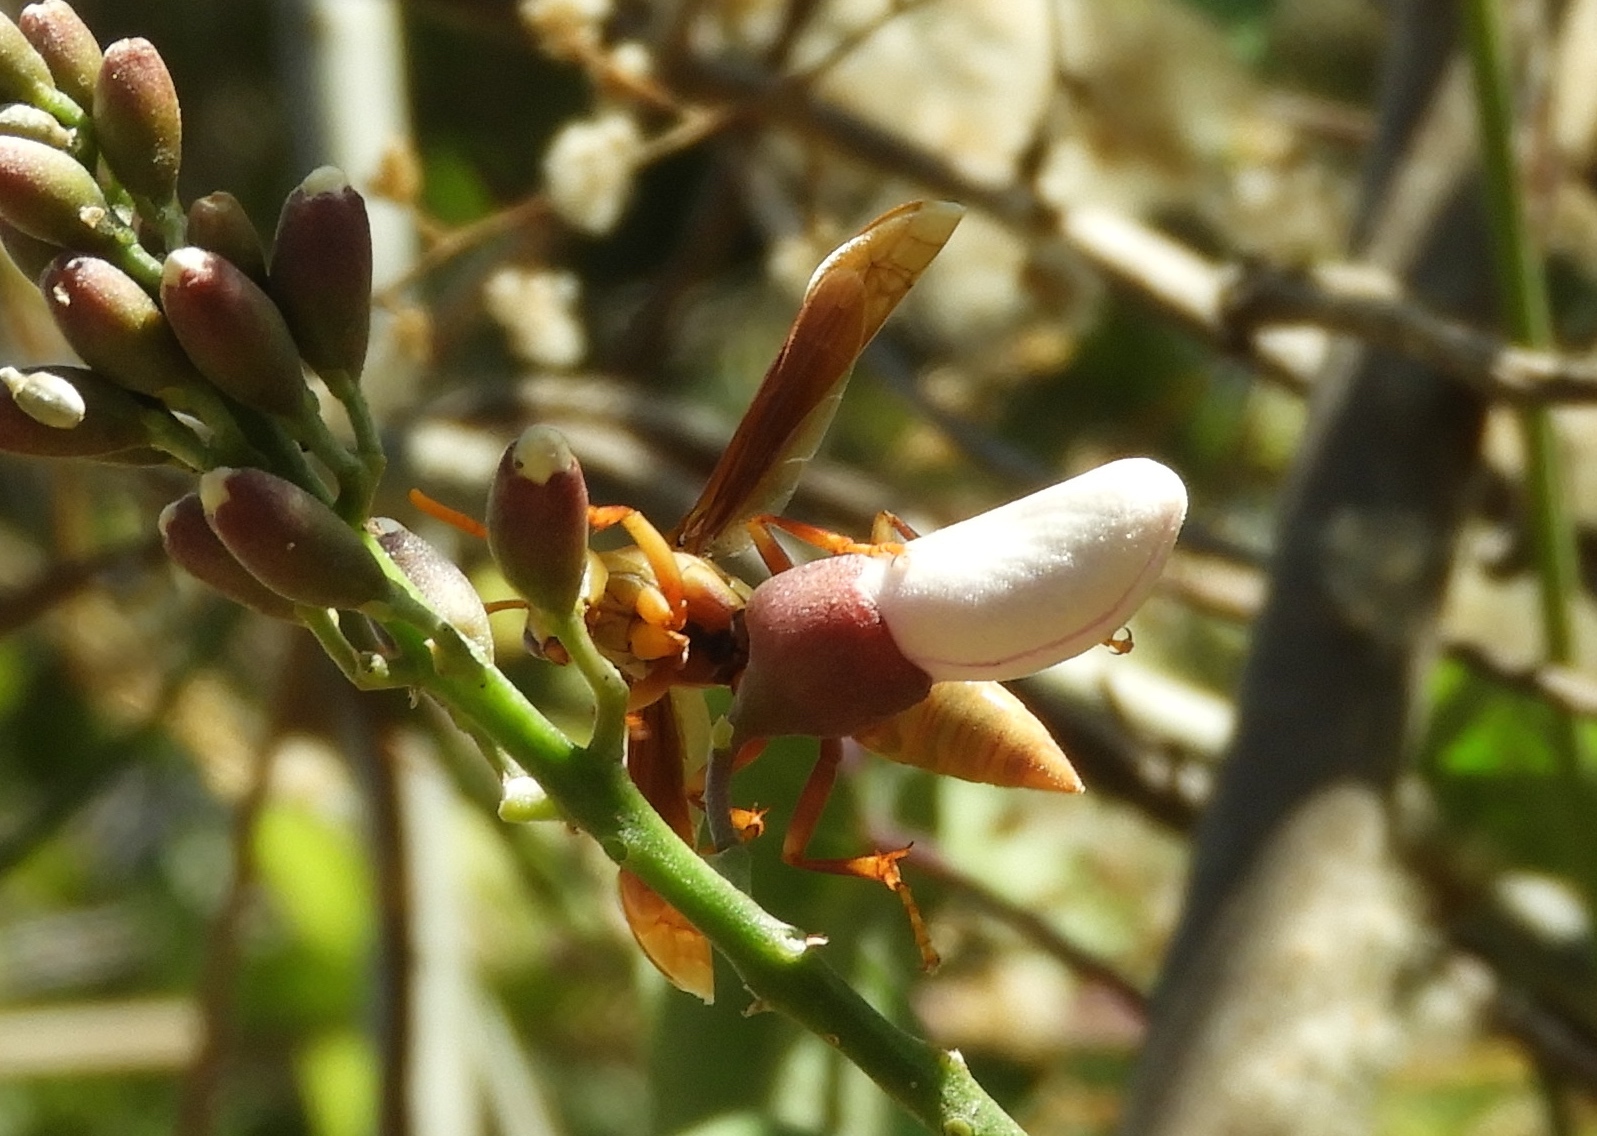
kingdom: Animalia
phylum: Arthropoda
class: Insecta
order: Hymenoptera
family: Eumenidae
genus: Polistes
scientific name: Polistes carnifex
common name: Paper wasp
